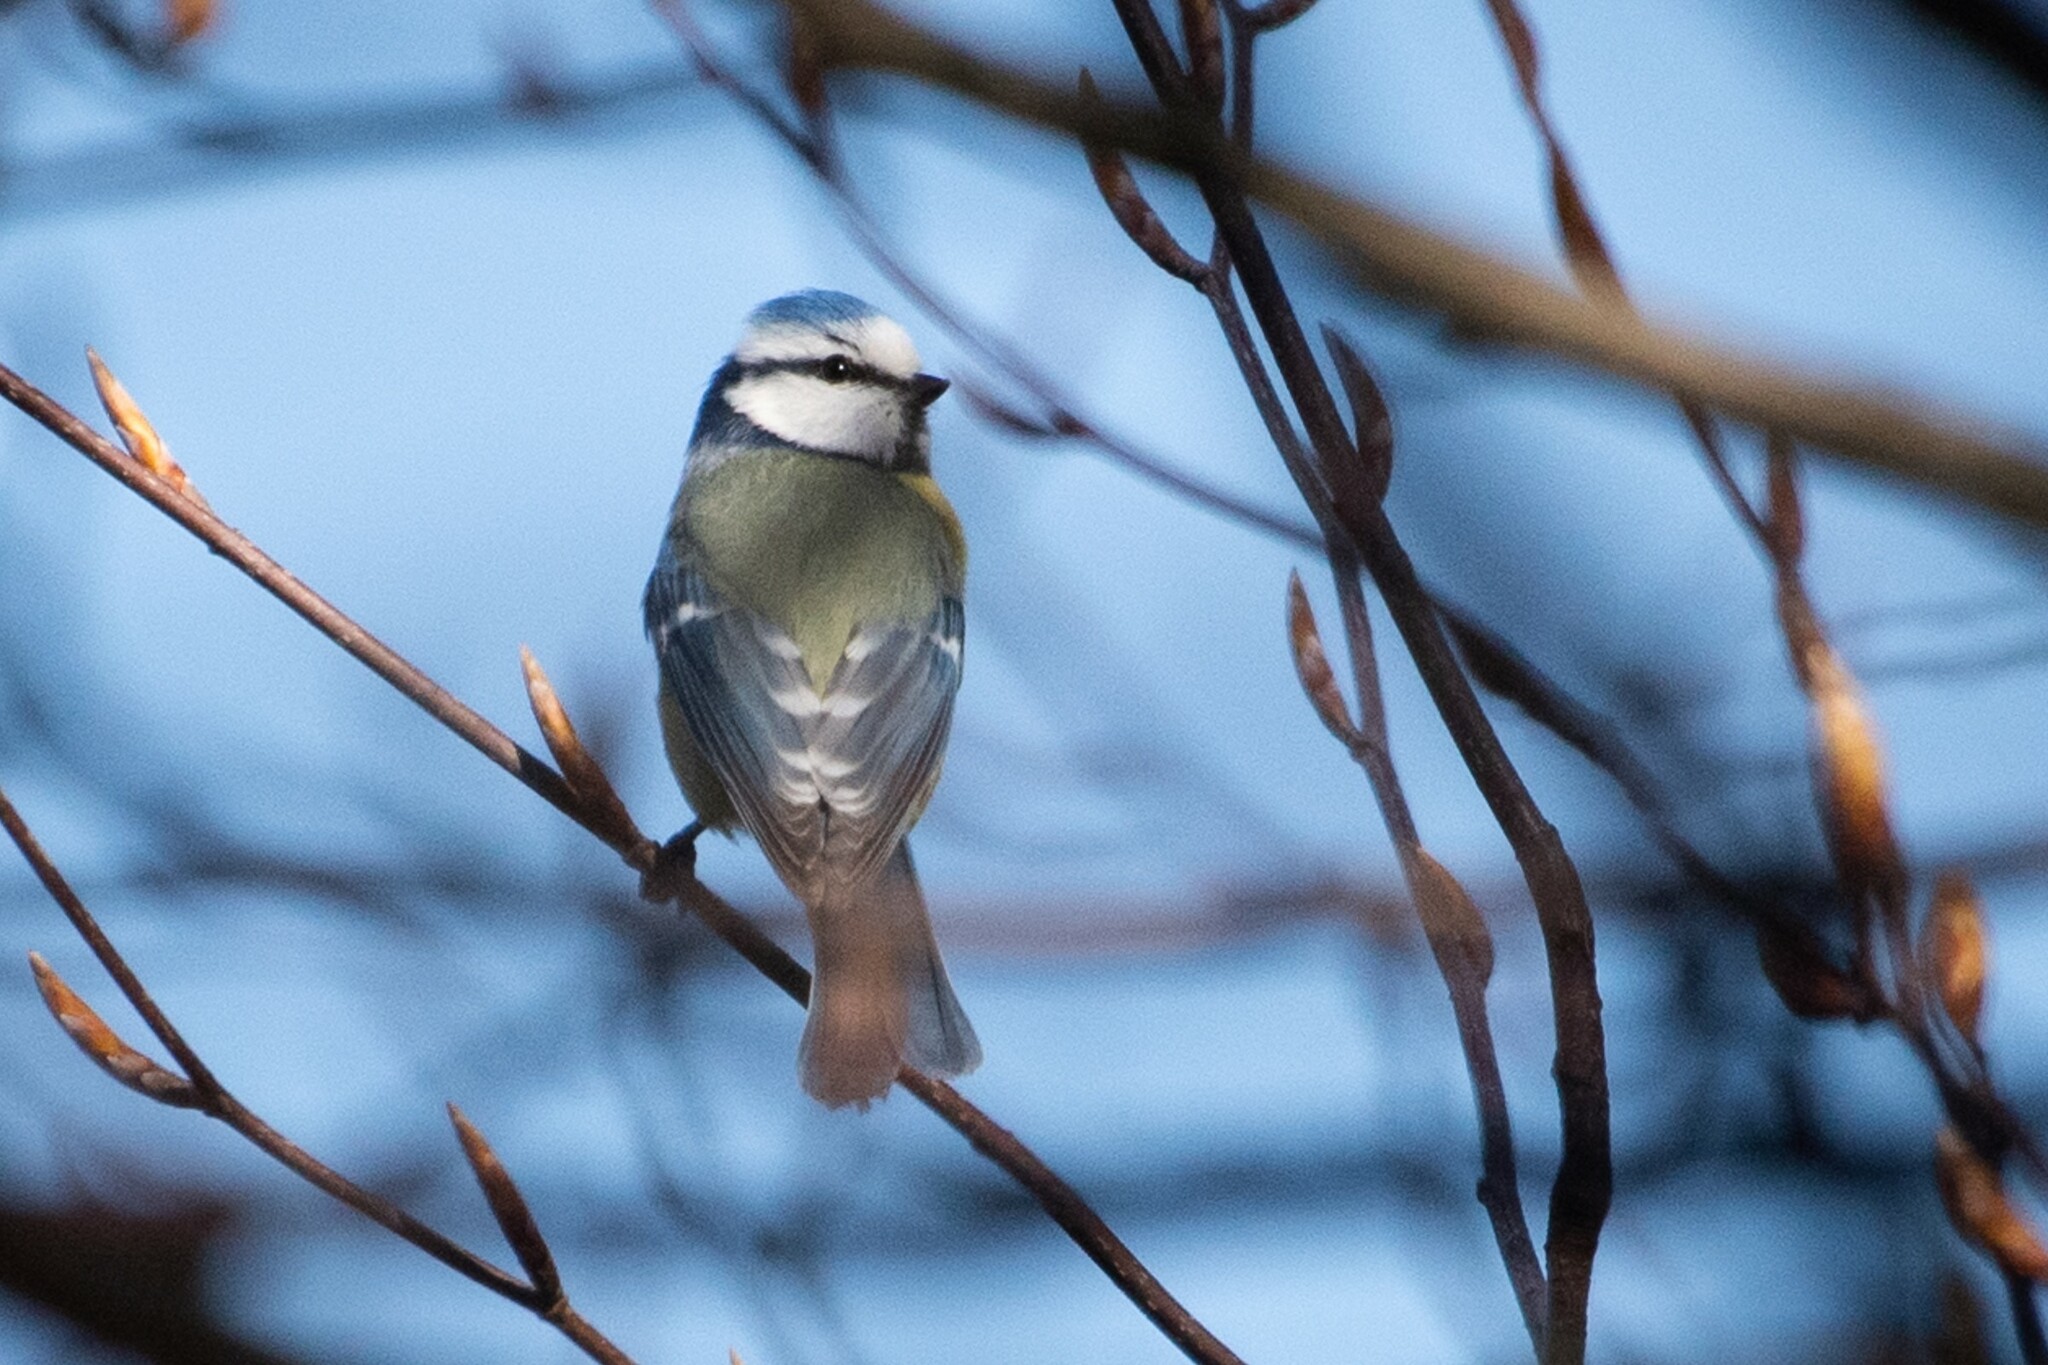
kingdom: Animalia
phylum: Chordata
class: Aves
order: Passeriformes
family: Paridae
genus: Cyanistes
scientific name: Cyanistes caeruleus
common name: Eurasian blue tit
